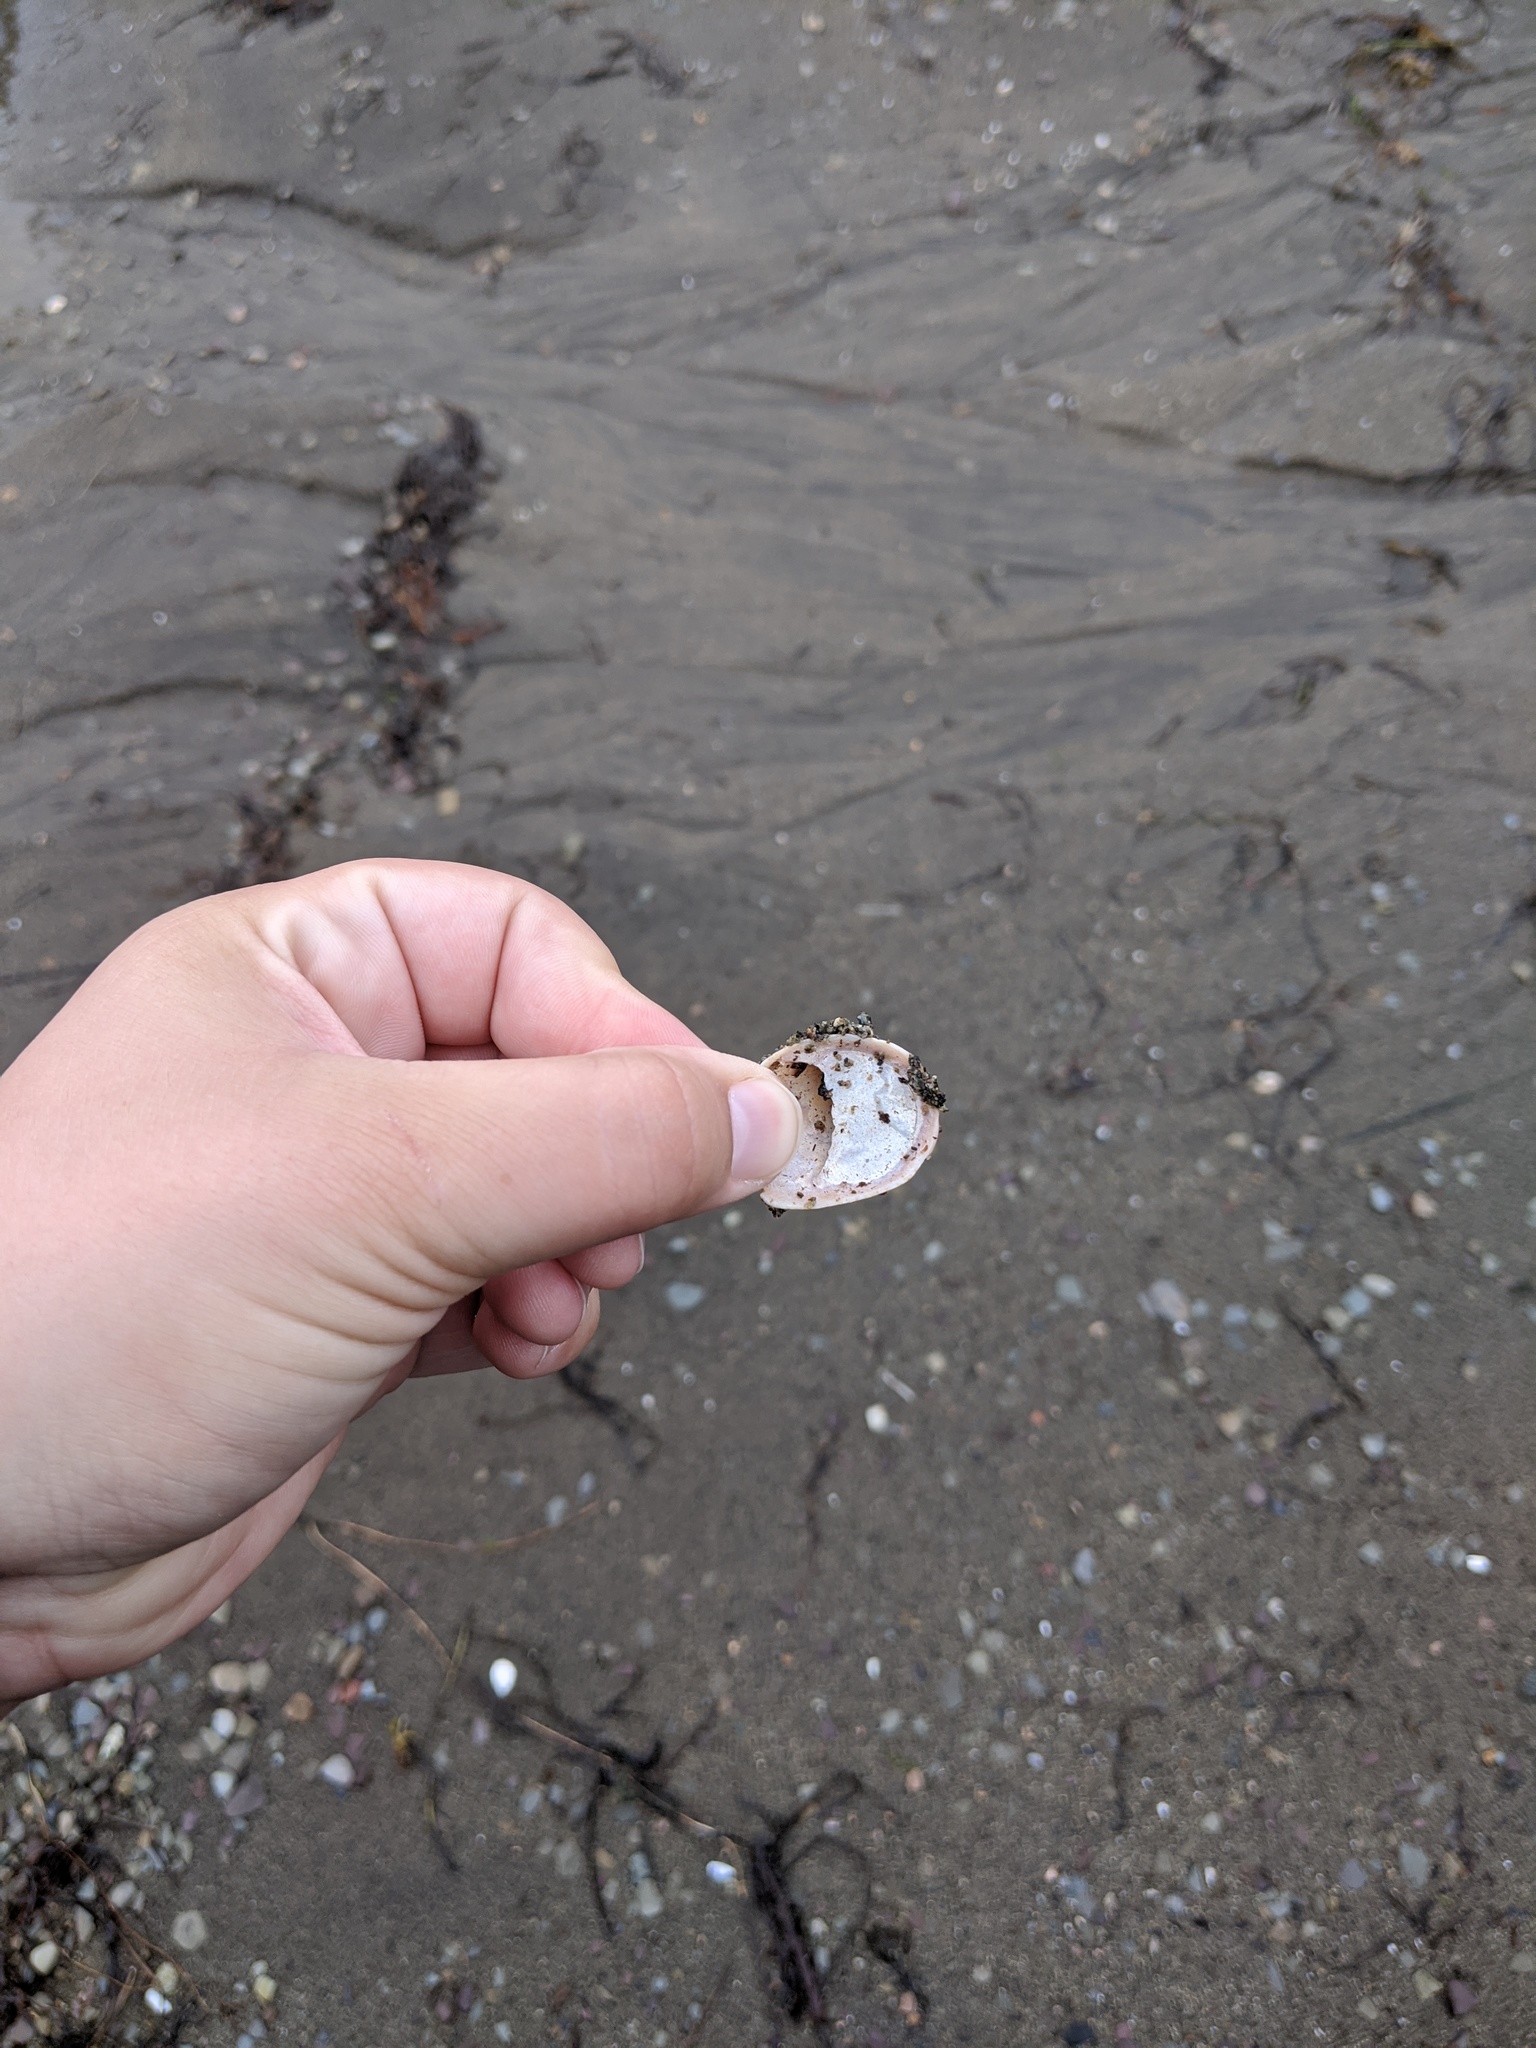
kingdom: Animalia
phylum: Mollusca
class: Gastropoda
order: Littorinimorpha
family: Calyptraeidae
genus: Crepidula
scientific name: Crepidula fornicata
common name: Slipper limpet
